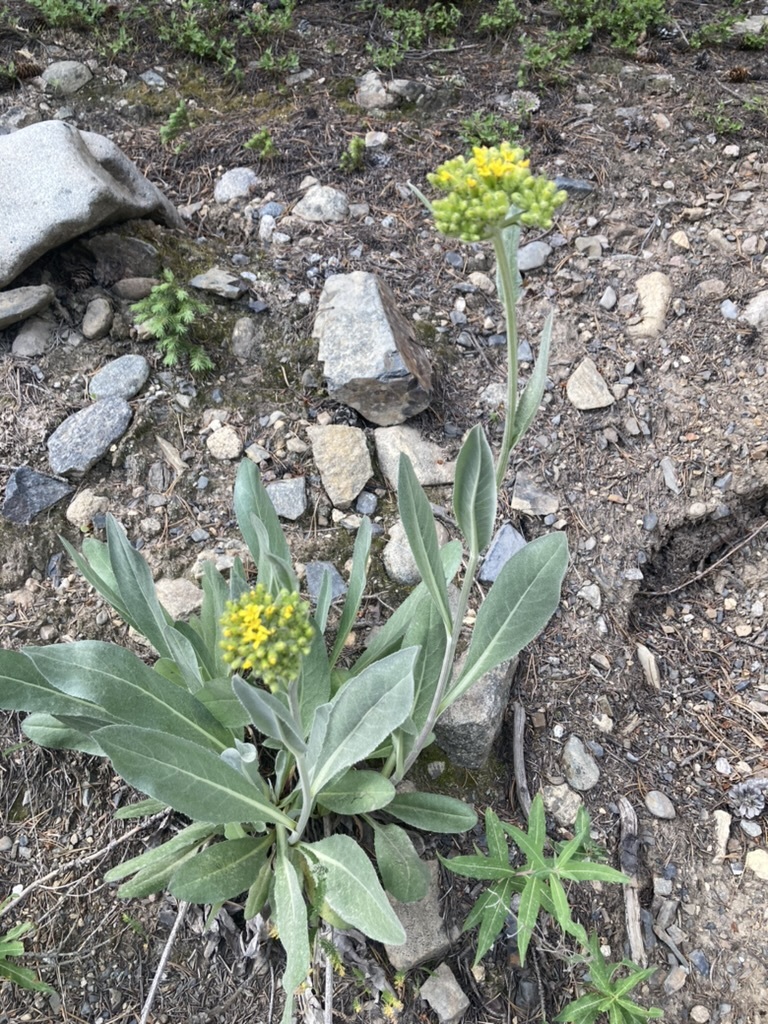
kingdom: Plantae
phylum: Tracheophyta
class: Magnoliopsida
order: Asterales
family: Asteraceae
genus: Senecio
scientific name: Senecio atratus
